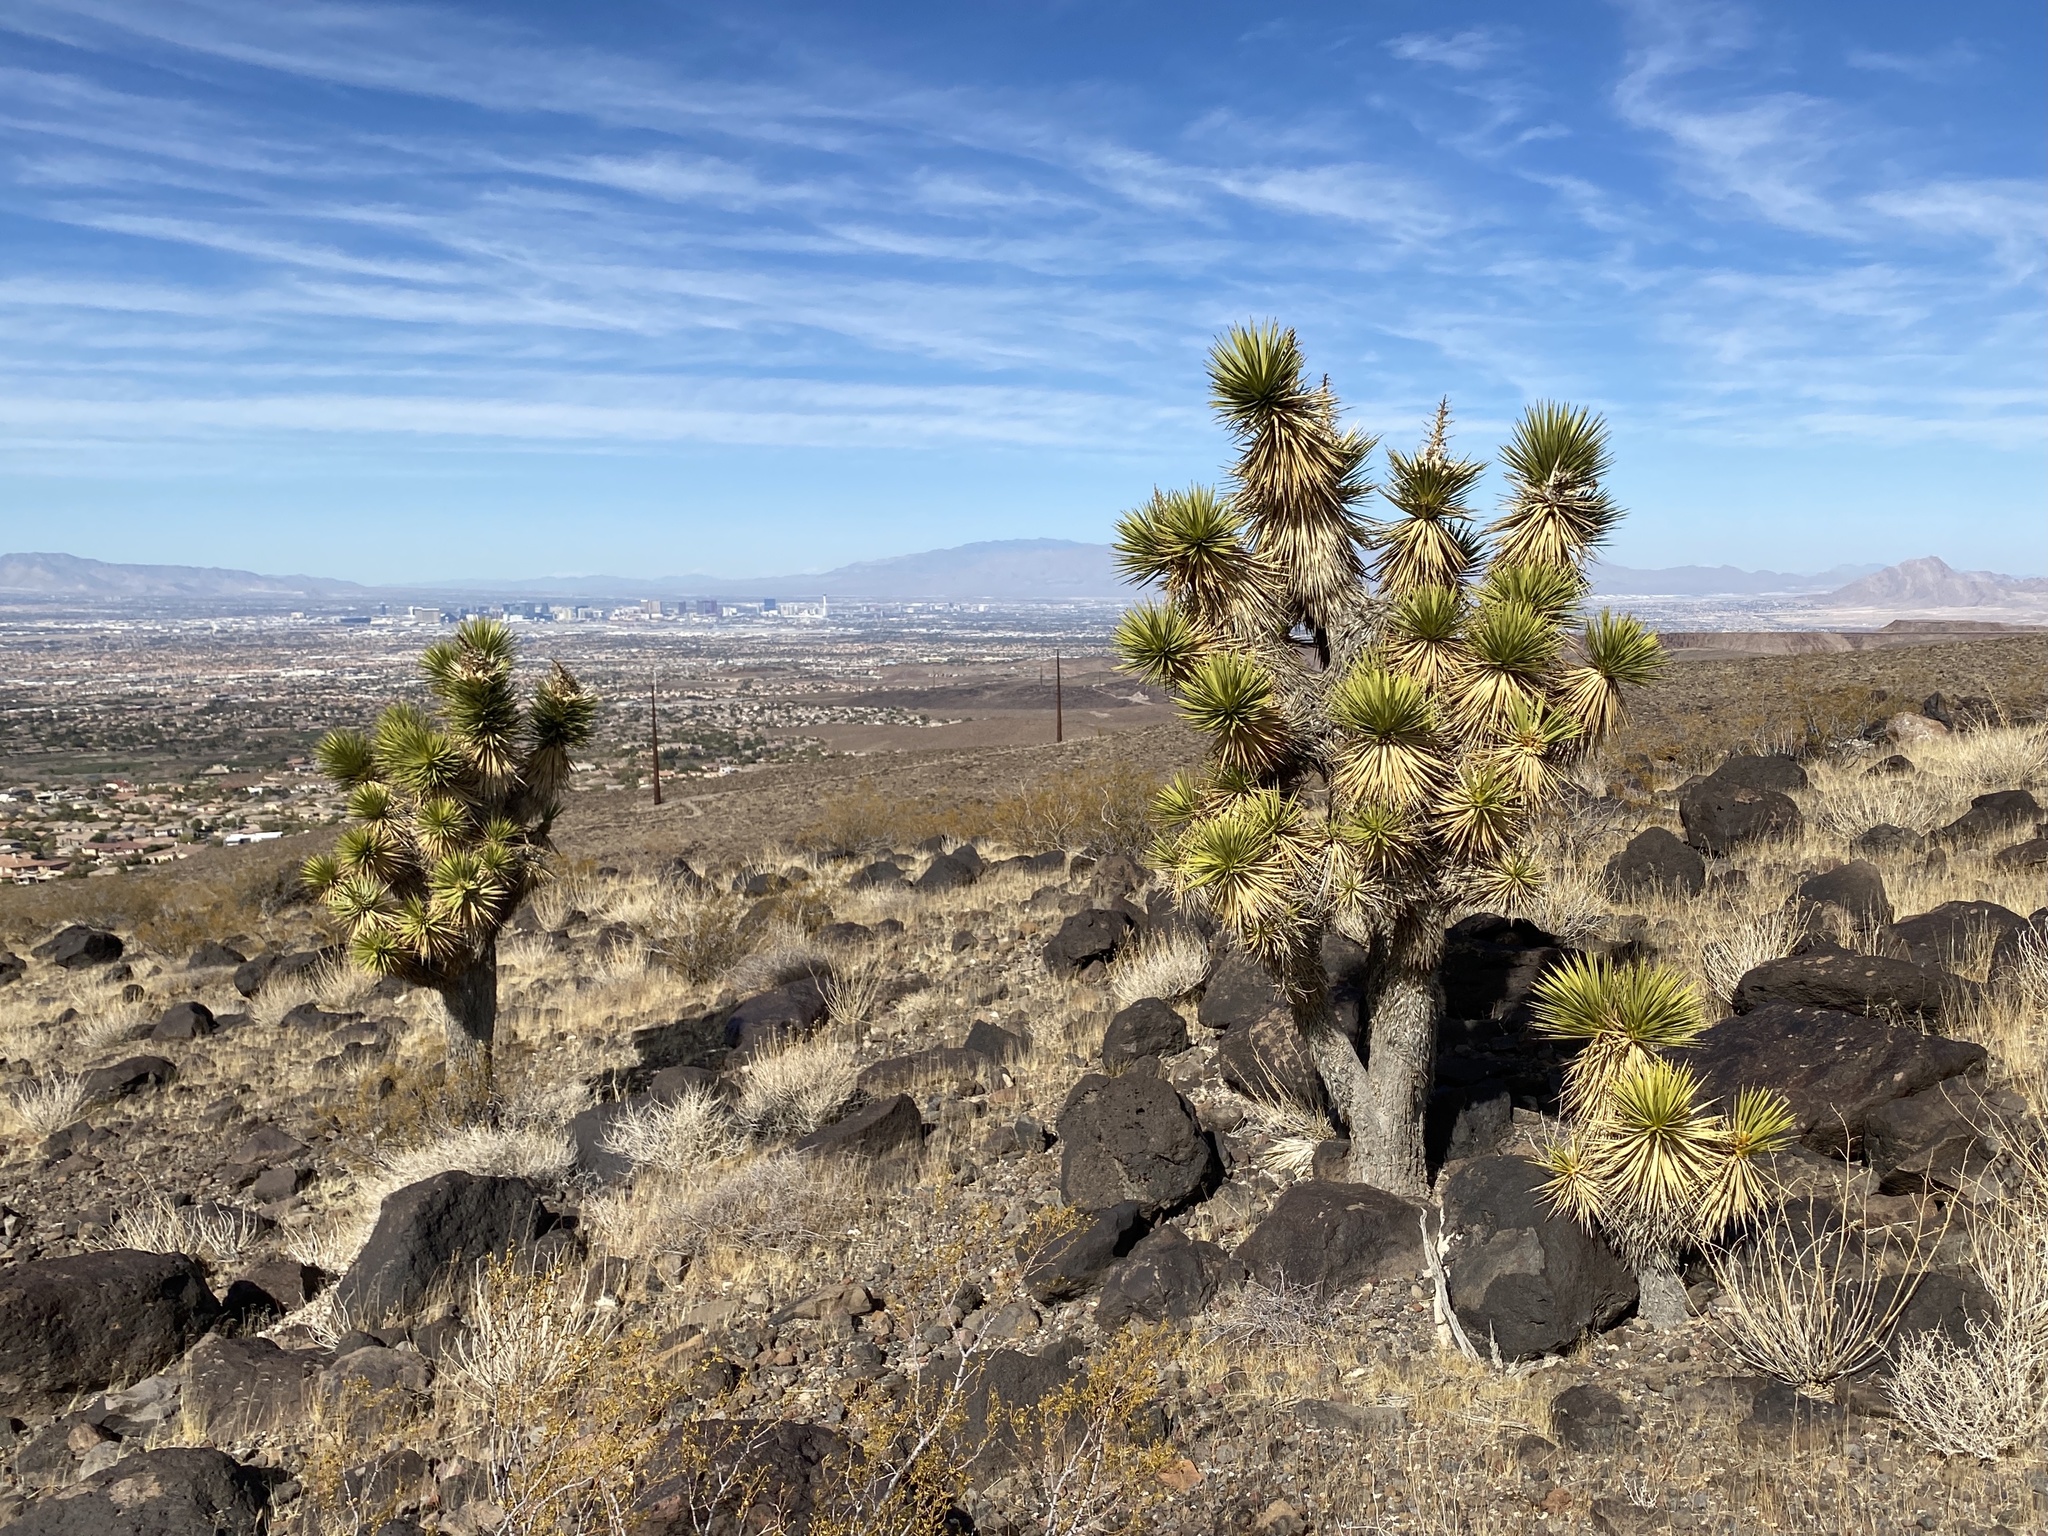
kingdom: Plantae
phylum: Tracheophyta
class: Liliopsida
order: Asparagales
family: Asparagaceae
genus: Yucca
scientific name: Yucca brevifolia
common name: Joshua tree
